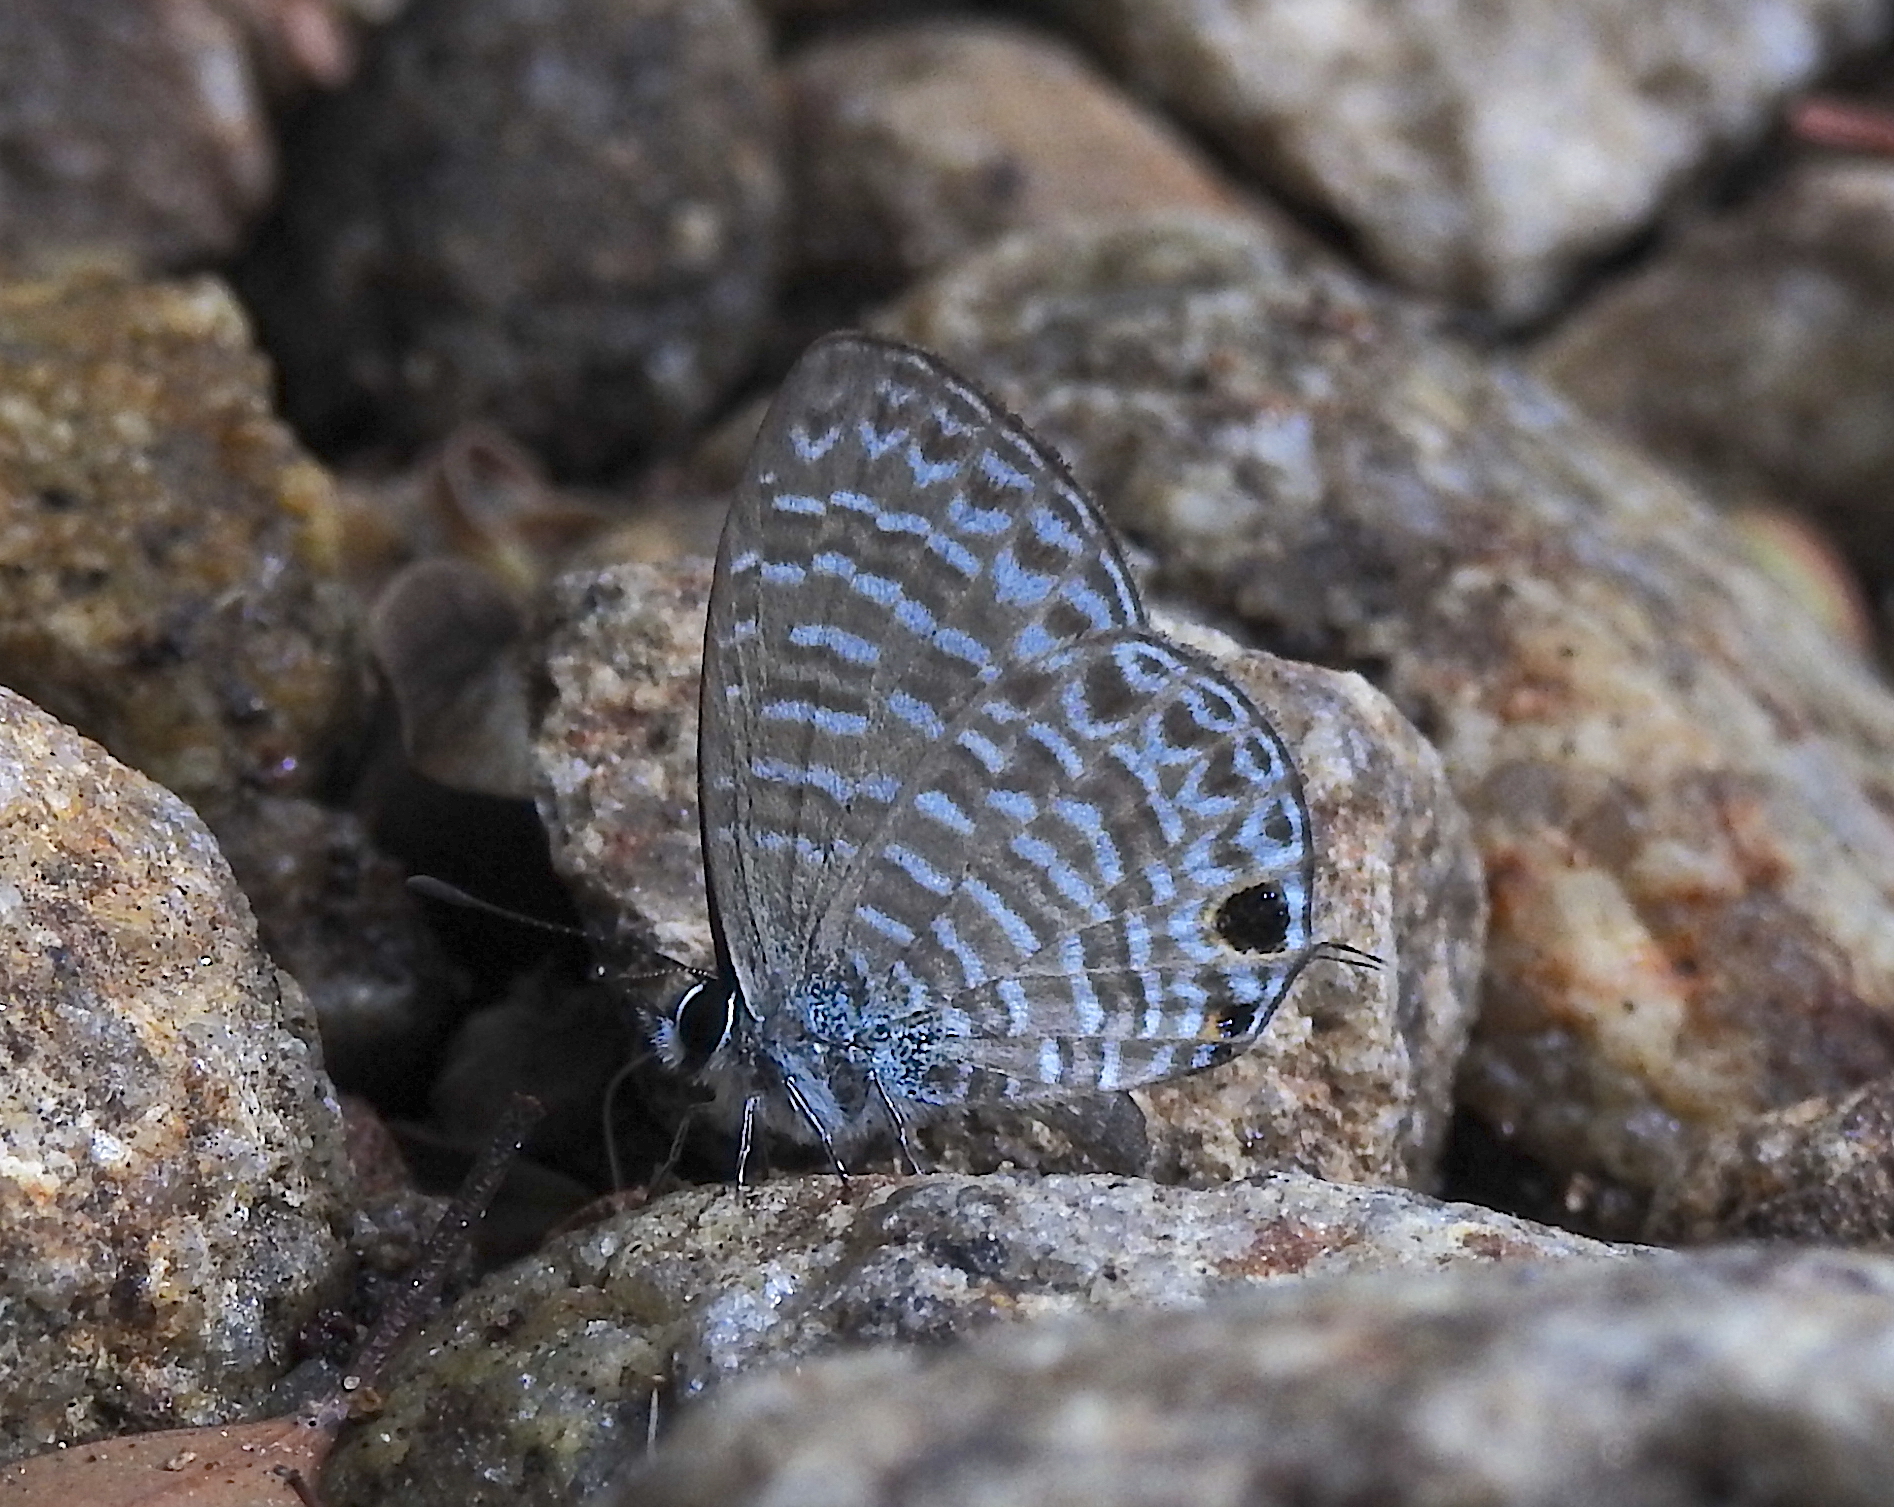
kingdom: Animalia
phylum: Arthropoda
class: Insecta
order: Lepidoptera
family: Lycaenidae
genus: Nacaduba
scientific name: Nacaduba sinhala
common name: Pale ceylon line blue
